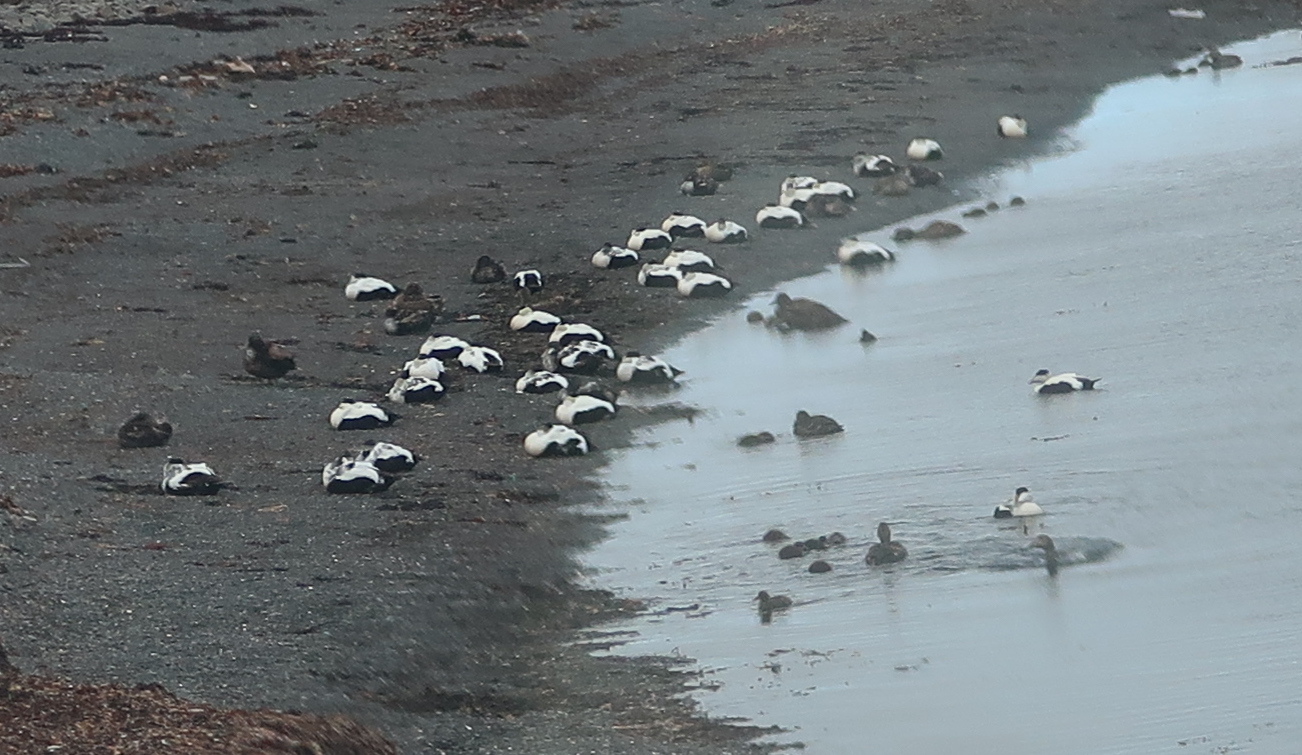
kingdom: Animalia
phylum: Chordata
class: Aves
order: Anseriformes
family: Anatidae
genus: Somateria
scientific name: Somateria mollissima
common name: Common eider
